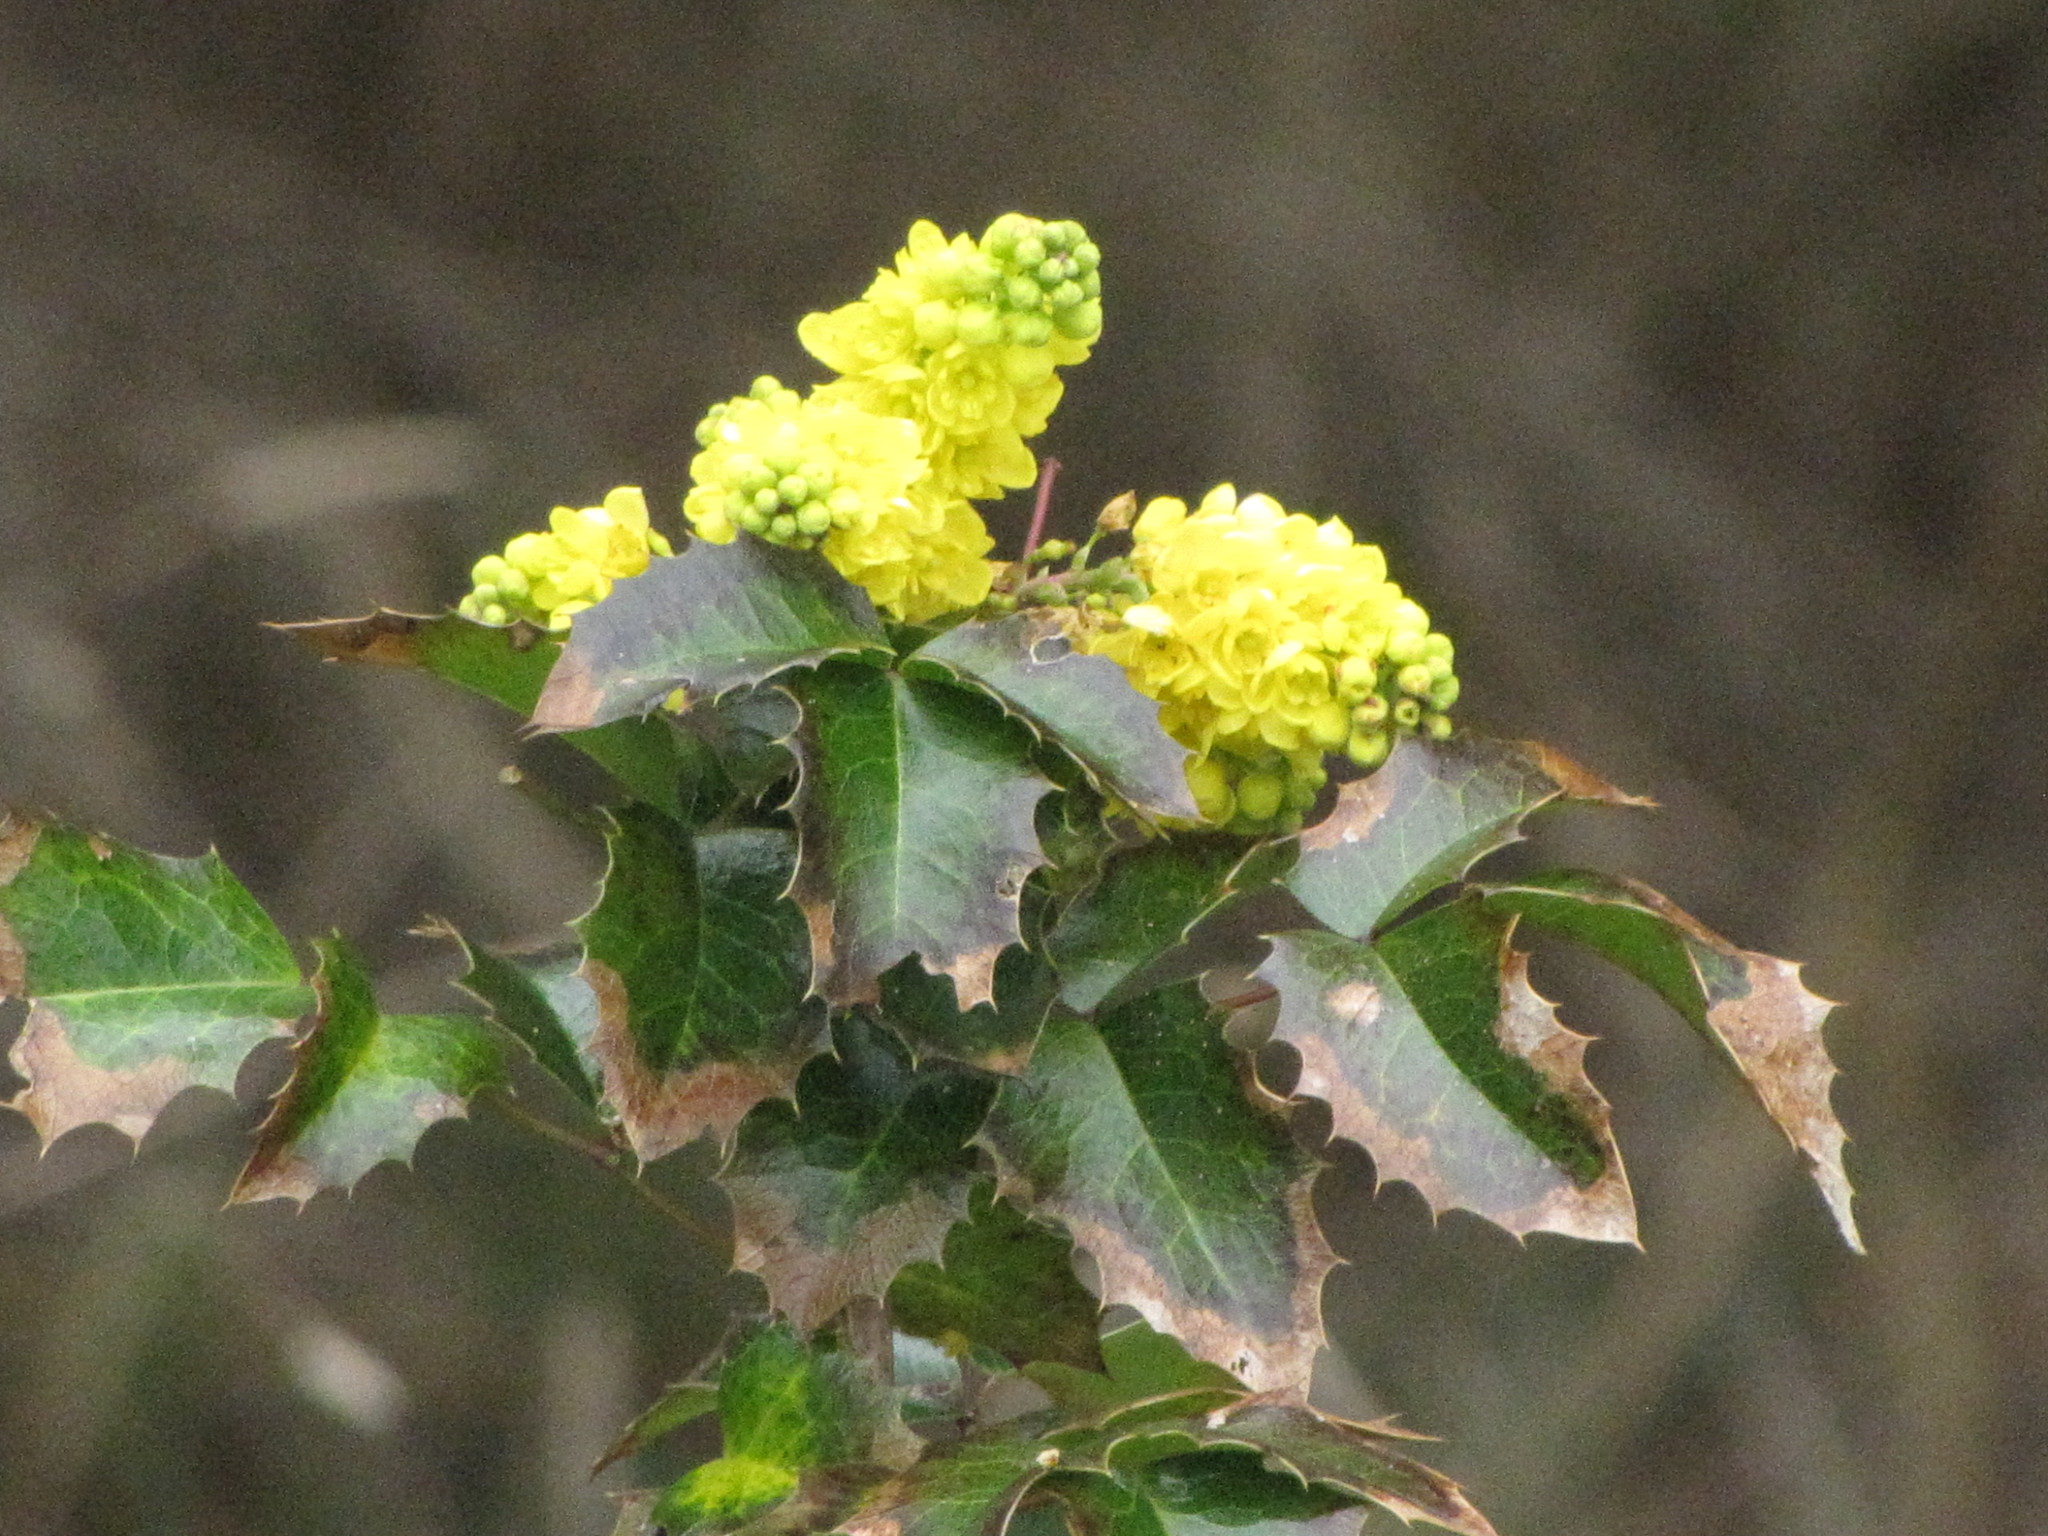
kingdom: Plantae
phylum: Tracheophyta
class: Magnoliopsida
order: Ranunculales
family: Berberidaceae
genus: Mahonia
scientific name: Mahonia aquifolium
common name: Oregon-grape
